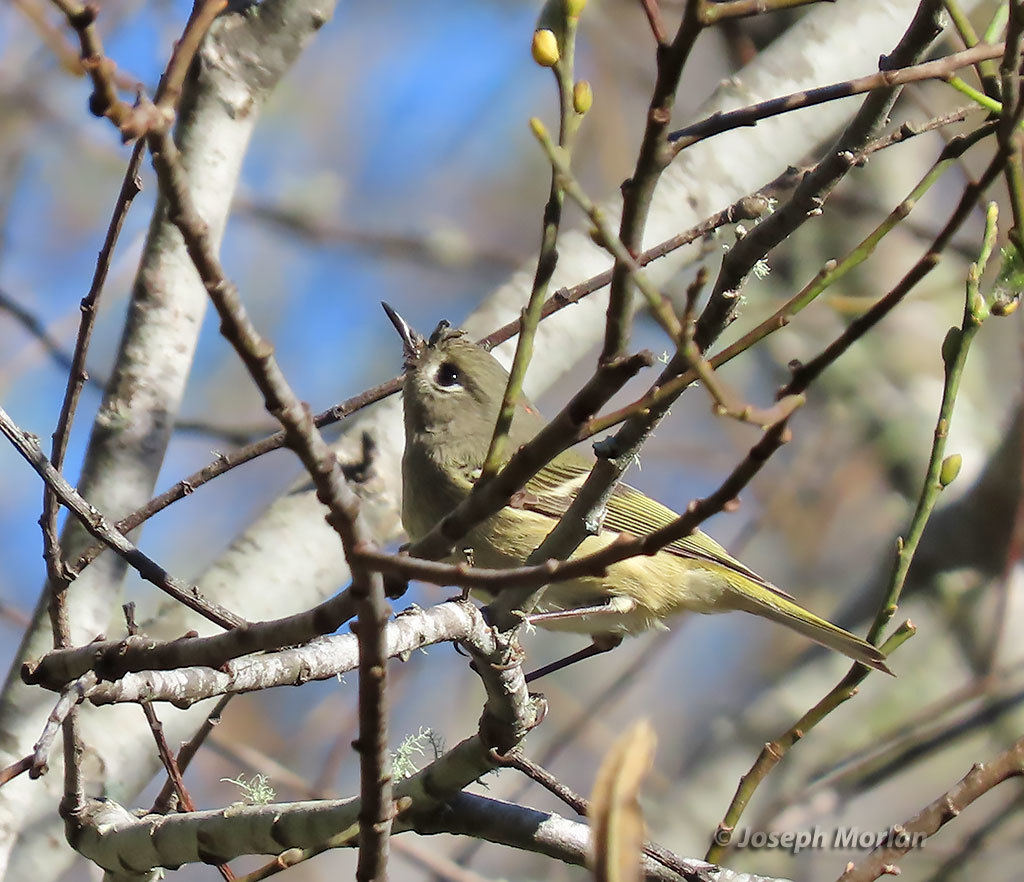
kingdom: Animalia
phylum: Chordata
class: Aves
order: Passeriformes
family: Regulidae
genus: Regulus
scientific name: Regulus calendula
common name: Ruby-crowned kinglet
